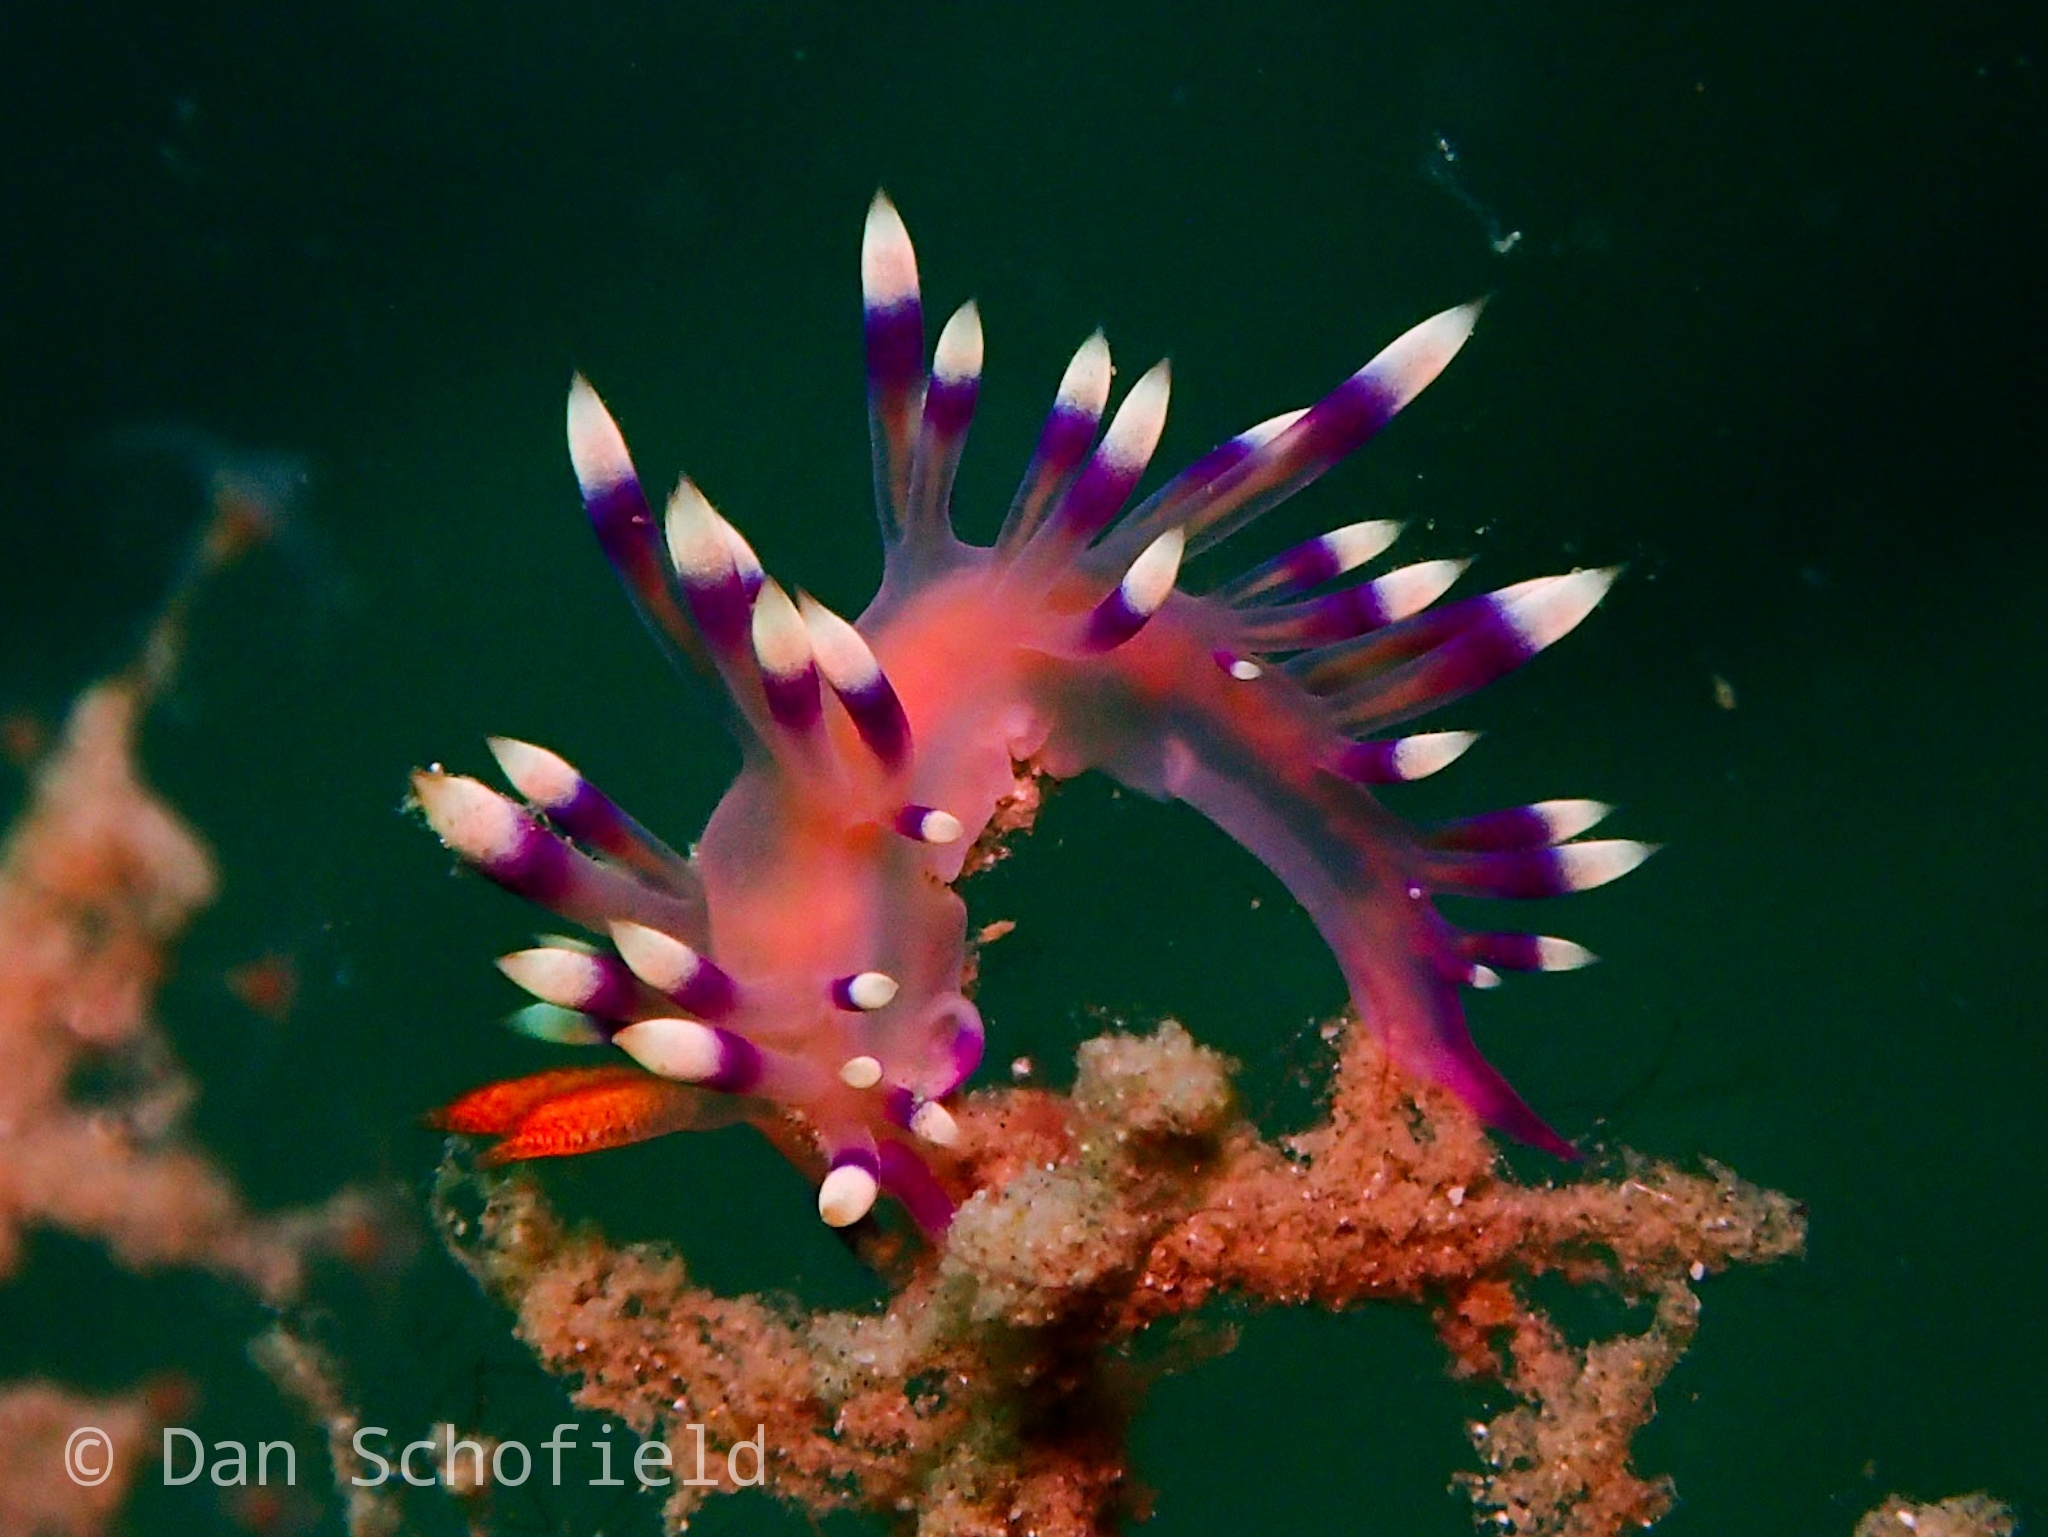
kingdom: Animalia
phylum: Mollusca
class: Gastropoda
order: Nudibranchia
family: Flabellinidae
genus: Coryphellina
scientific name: Coryphellina exoptata
